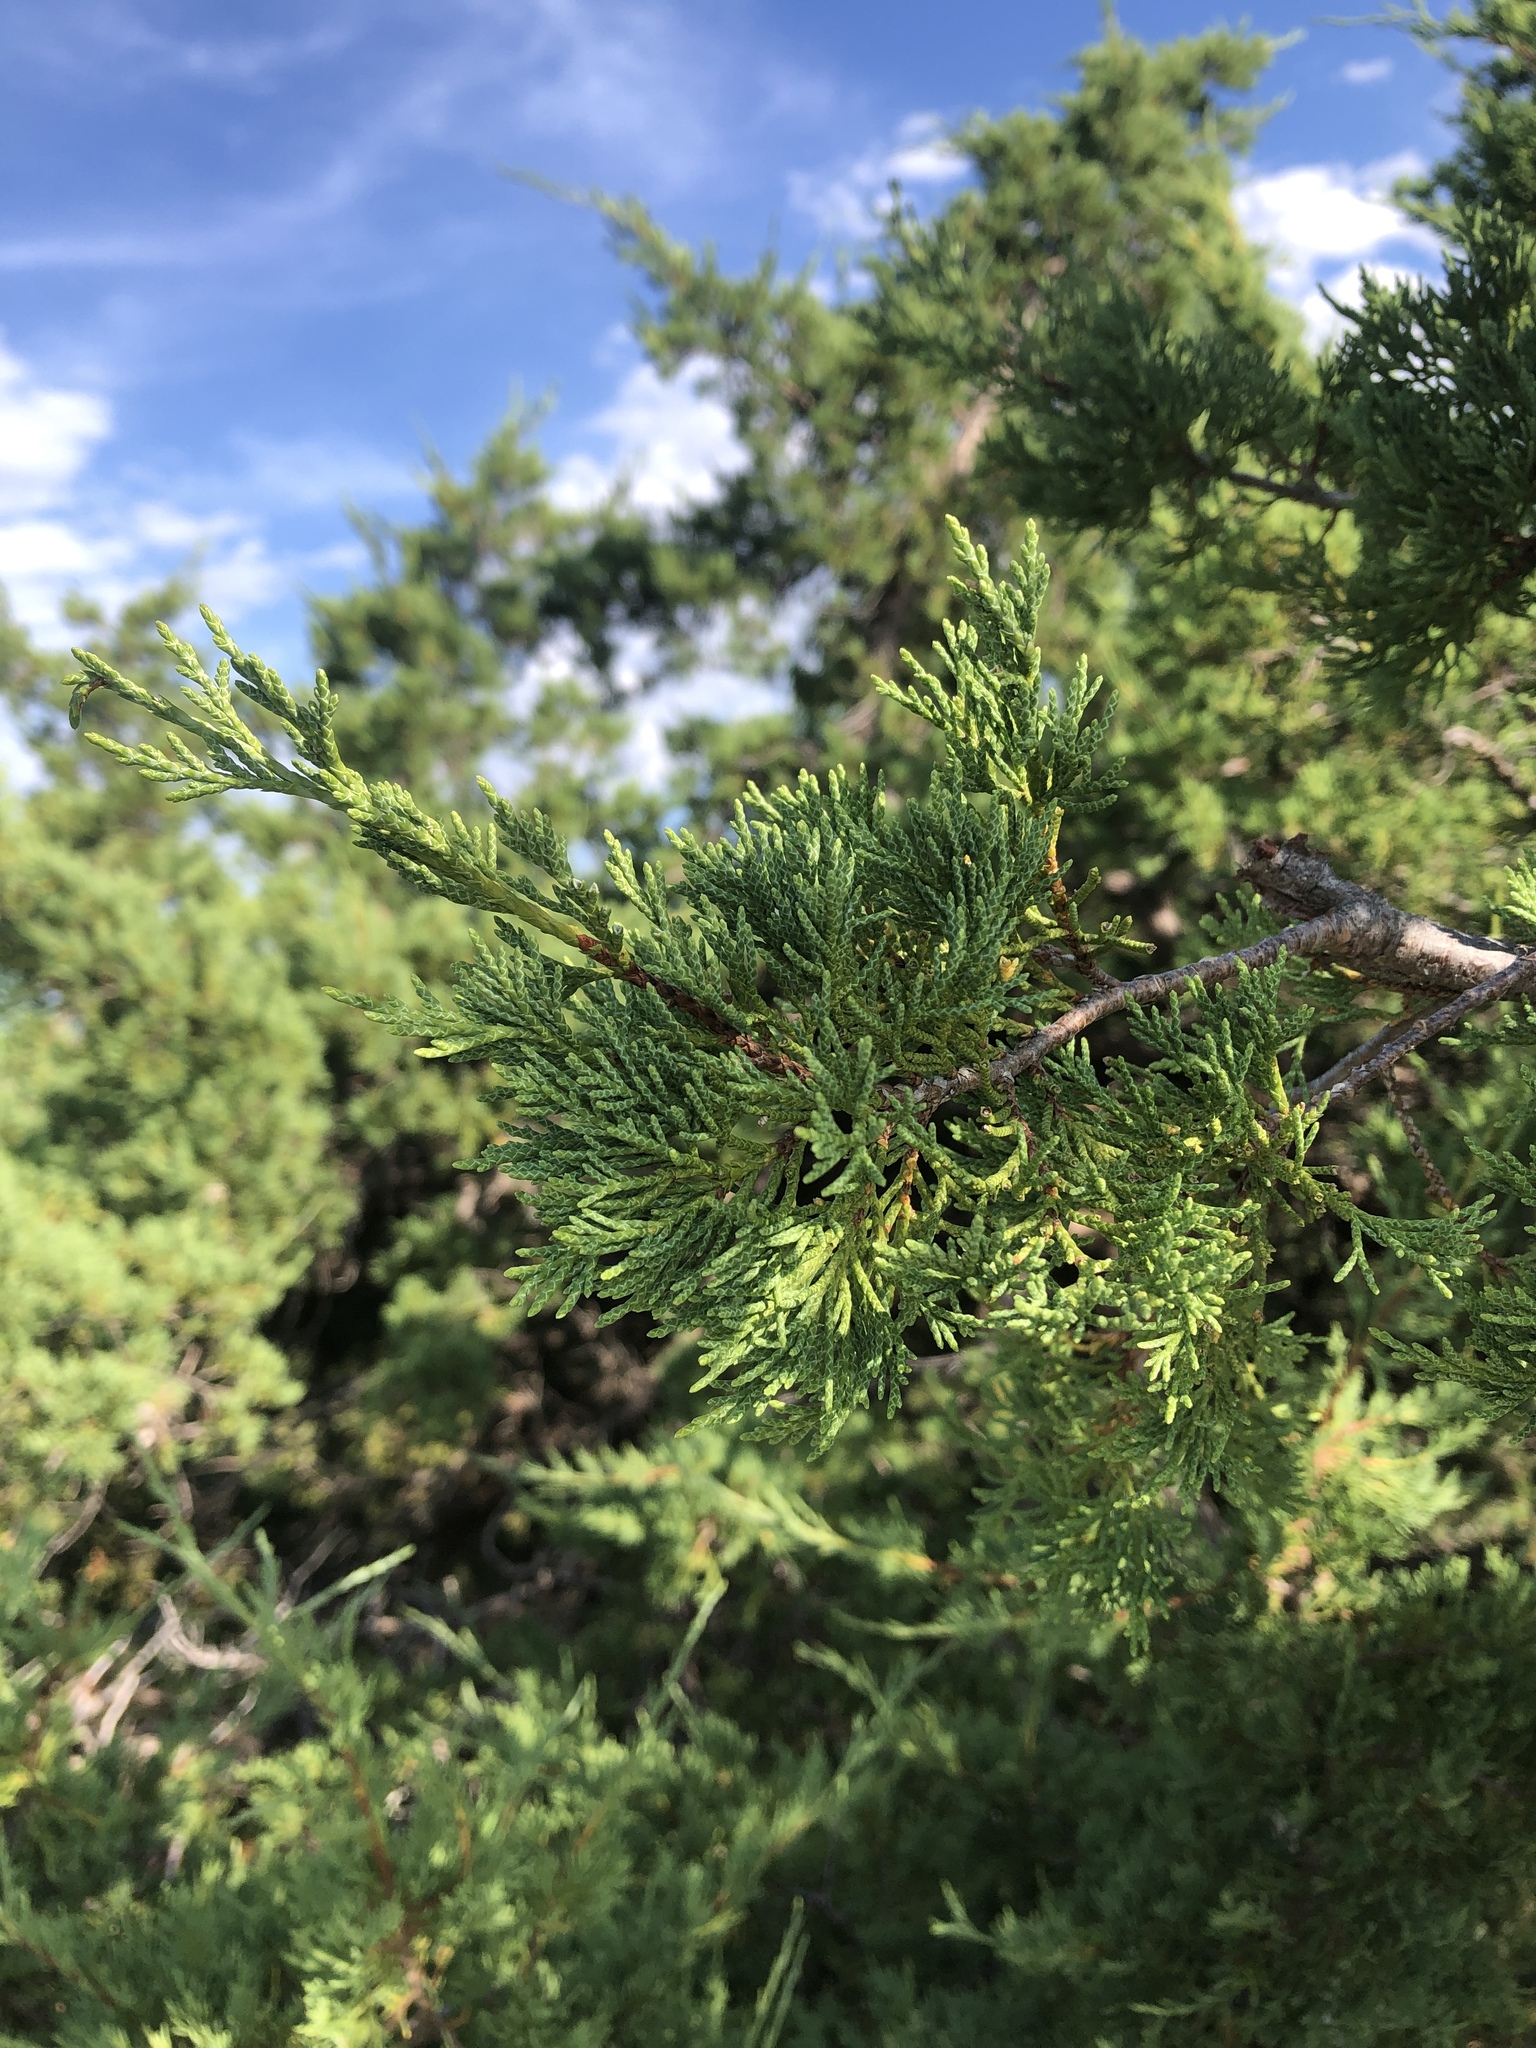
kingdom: Plantae
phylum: Tracheophyta
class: Pinopsida
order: Pinales
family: Cupressaceae
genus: Juniperus
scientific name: Juniperus scopulorum
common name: Rocky mountain juniper
